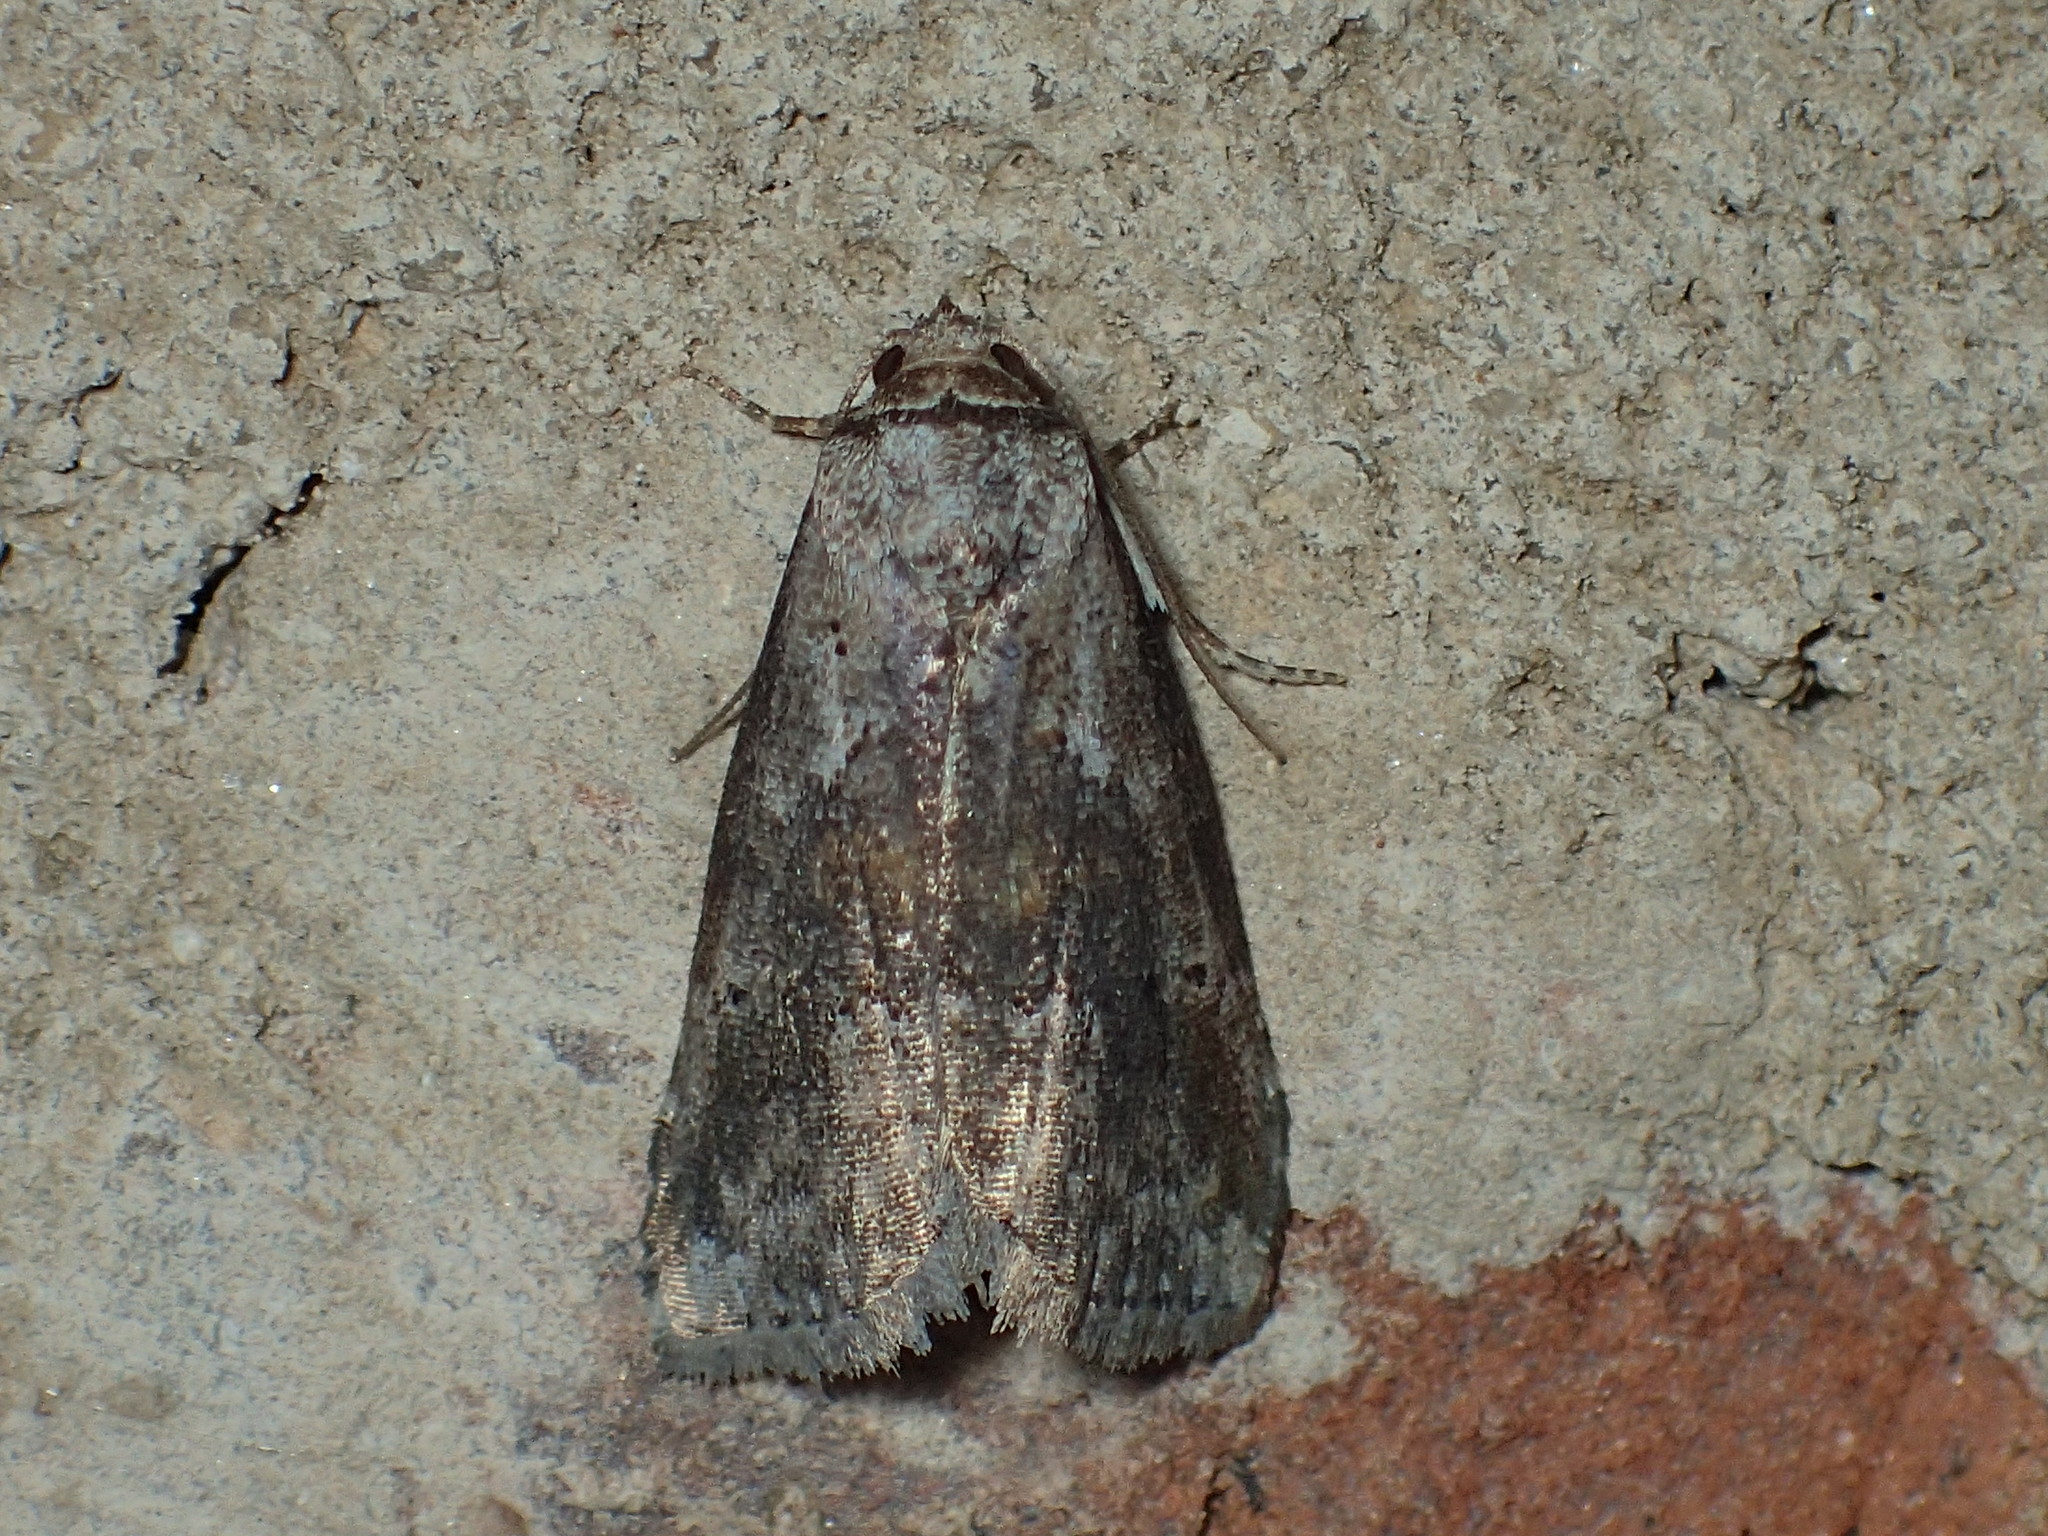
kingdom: Animalia
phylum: Arthropoda
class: Insecta
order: Lepidoptera
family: Erebidae
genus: Hyperstrotia
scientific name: Hyperstrotia nana
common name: White-lined graylet
